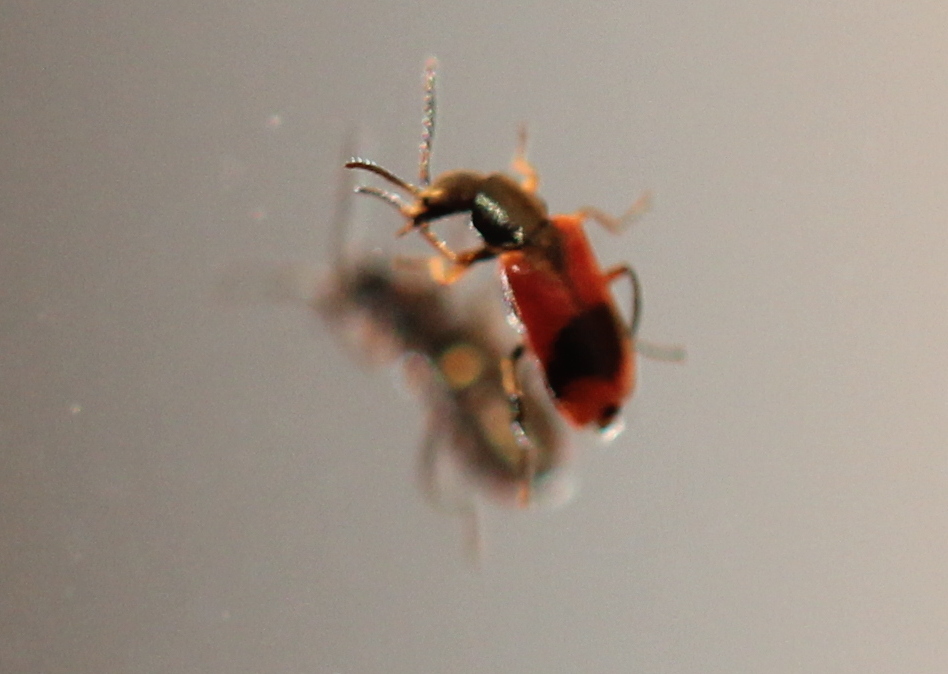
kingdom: Animalia
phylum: Arthropoda
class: Insecta
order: Coleoptera
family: Melyridae
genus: Anthocomus
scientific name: Anthocomus equestris
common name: Black-banded soft-winged flower beetle
